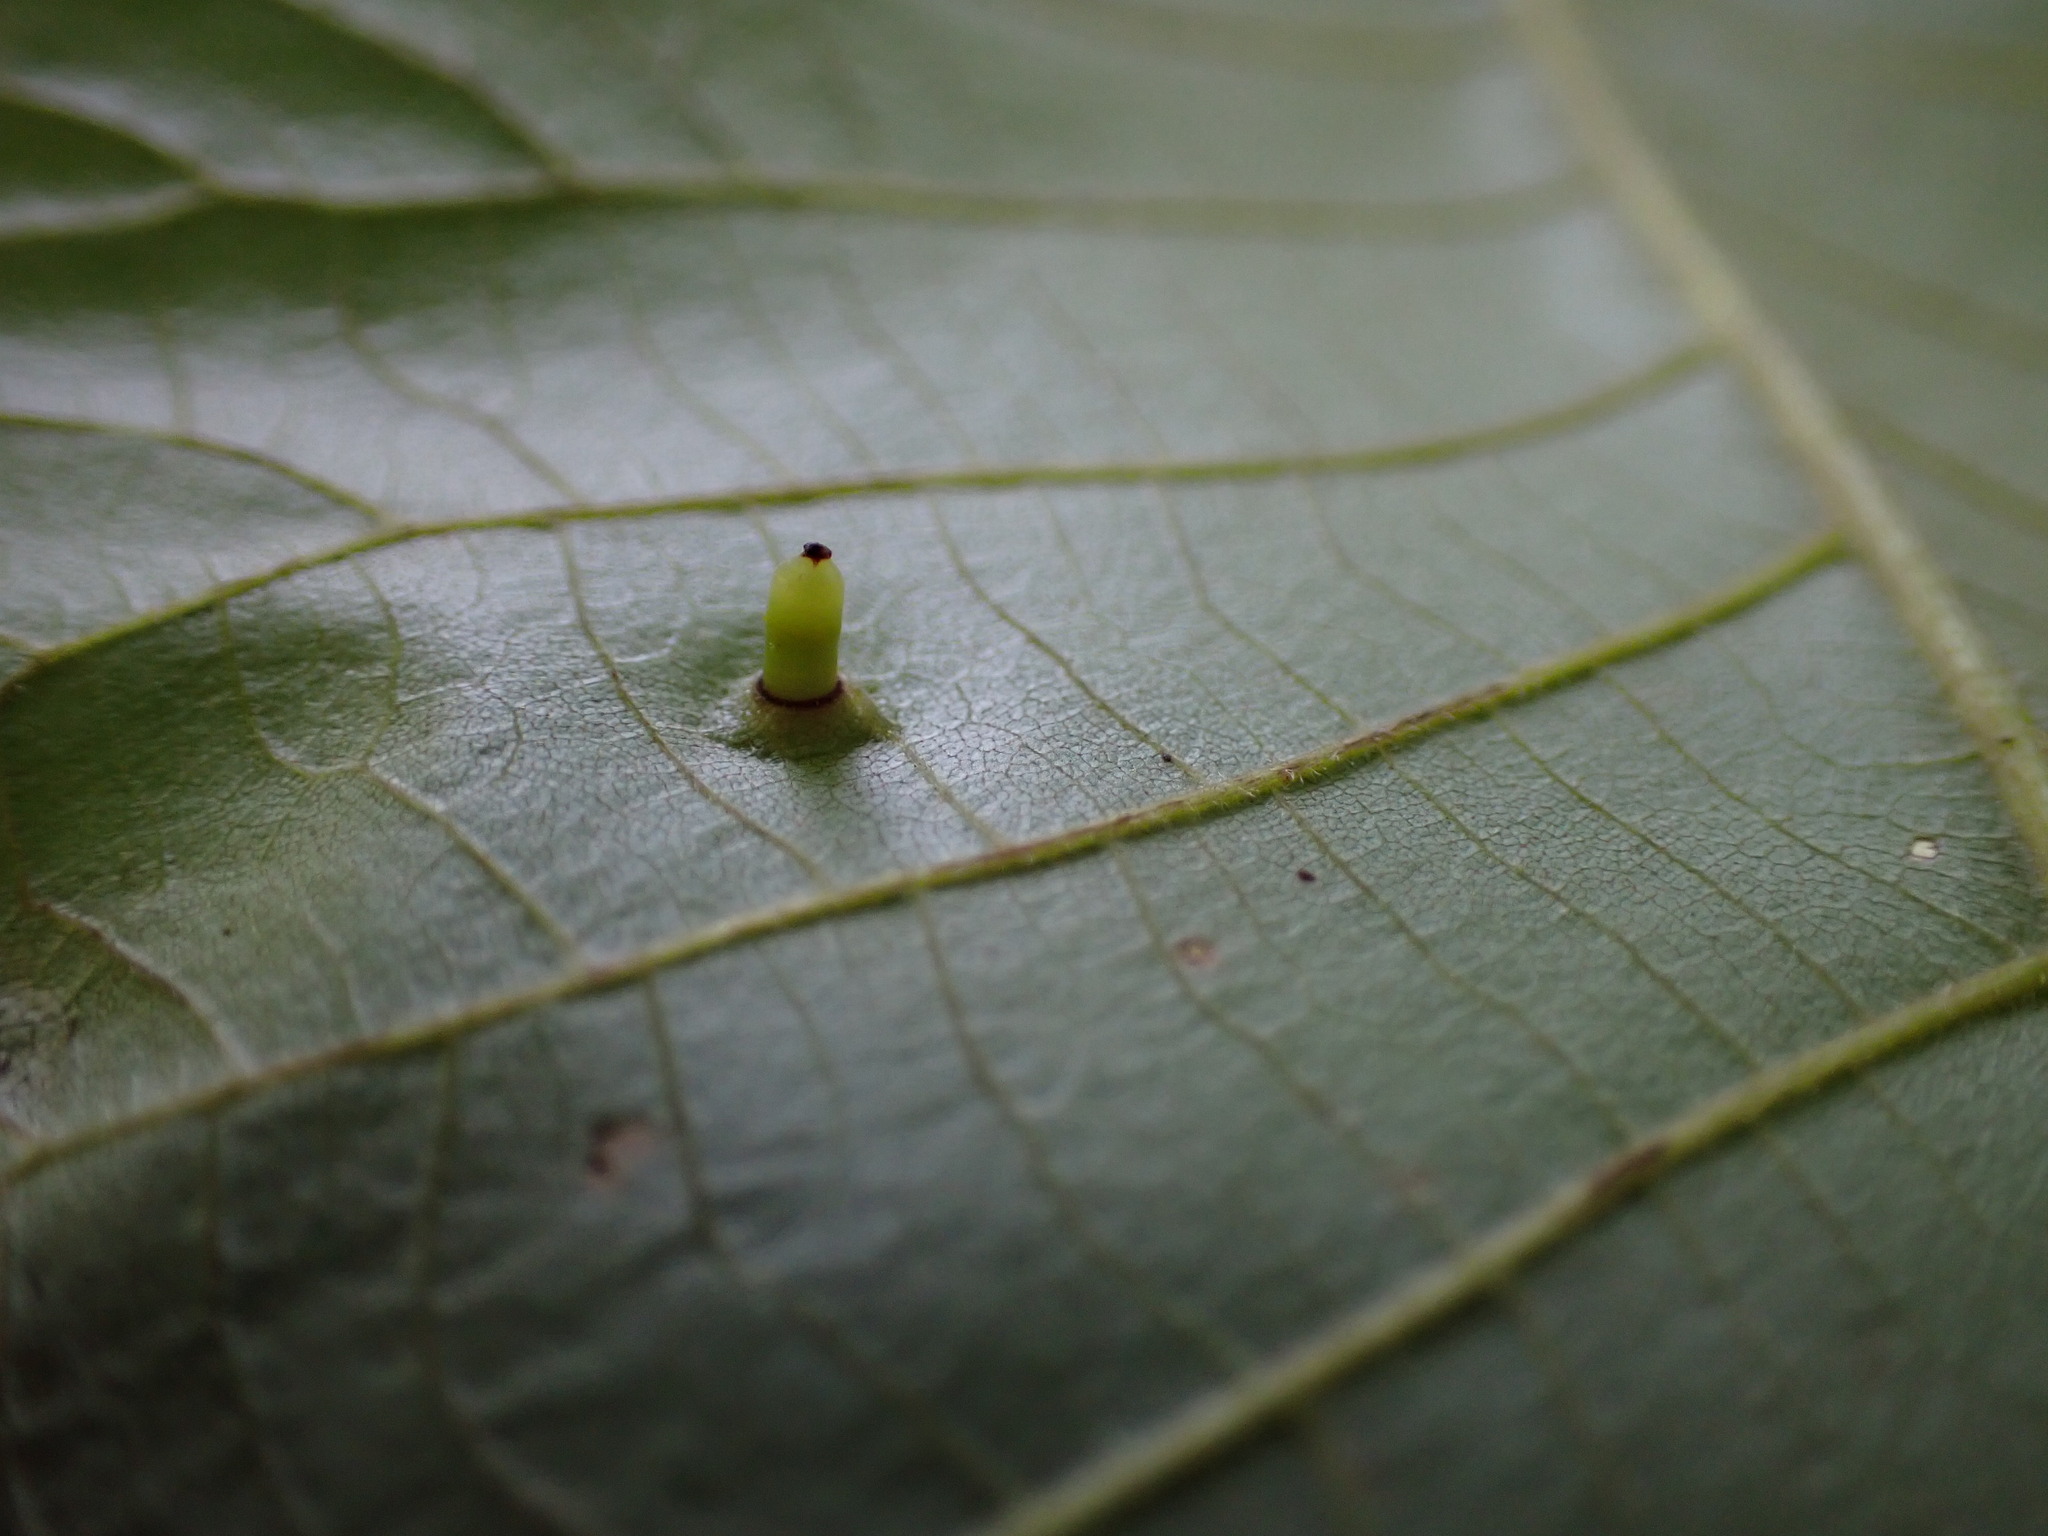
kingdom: Animalia
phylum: Arthropoda
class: Insecta
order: Diptera
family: Cecidomyiidae
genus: Caryomyia
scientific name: Caryomyia tubicola
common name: Hickory bullet gall midge
